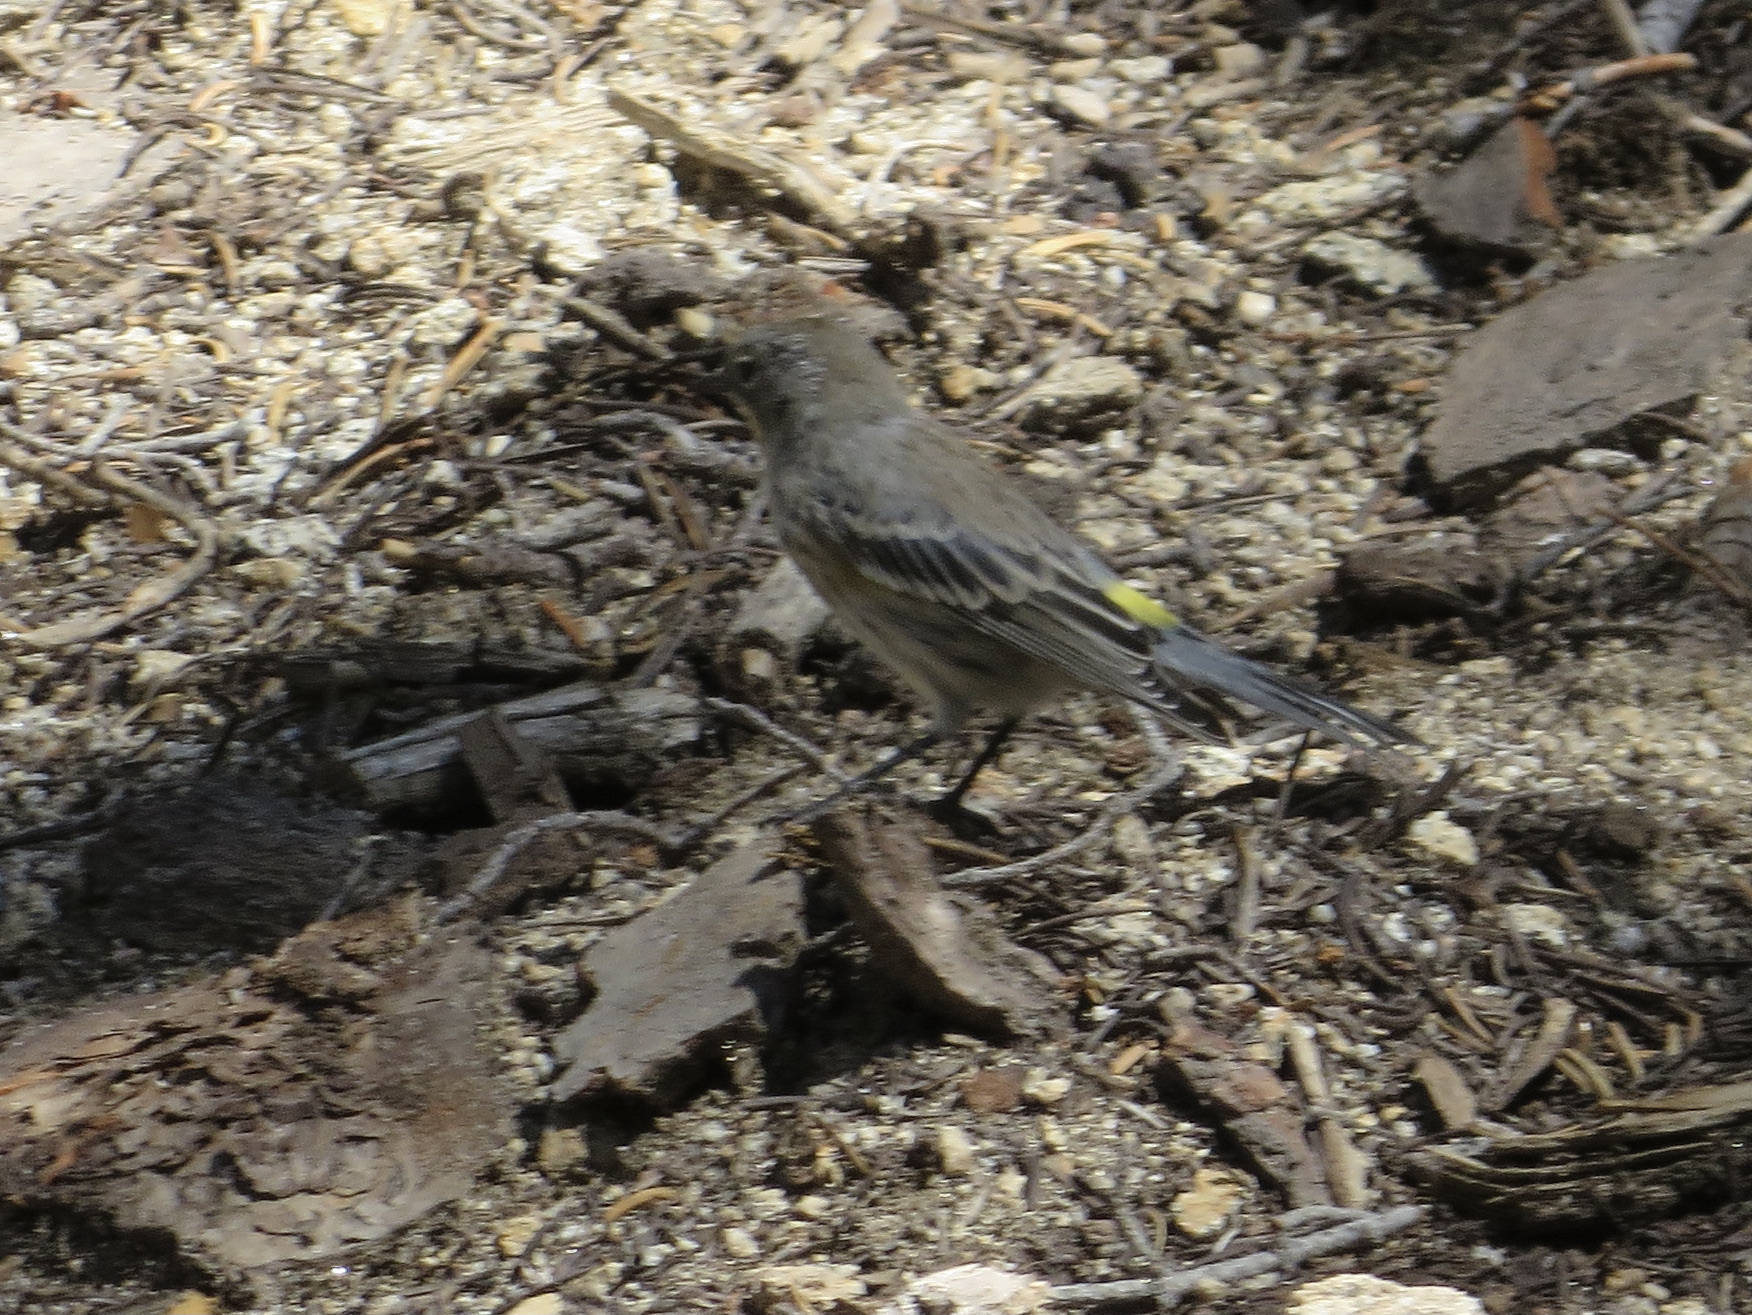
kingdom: Animalia
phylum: Chordata
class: Aves
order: Passeriformes
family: Parulidae
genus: Setophaga
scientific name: Setophaga coronata
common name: Myrtle warbler
